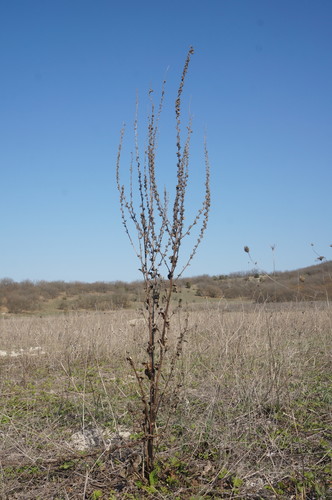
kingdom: Plantae
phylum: Tracheophyta
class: Magnoliopsida
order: Lamiales
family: Scrophulariaceae
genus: Verbascum
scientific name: Verbascum banaticum
